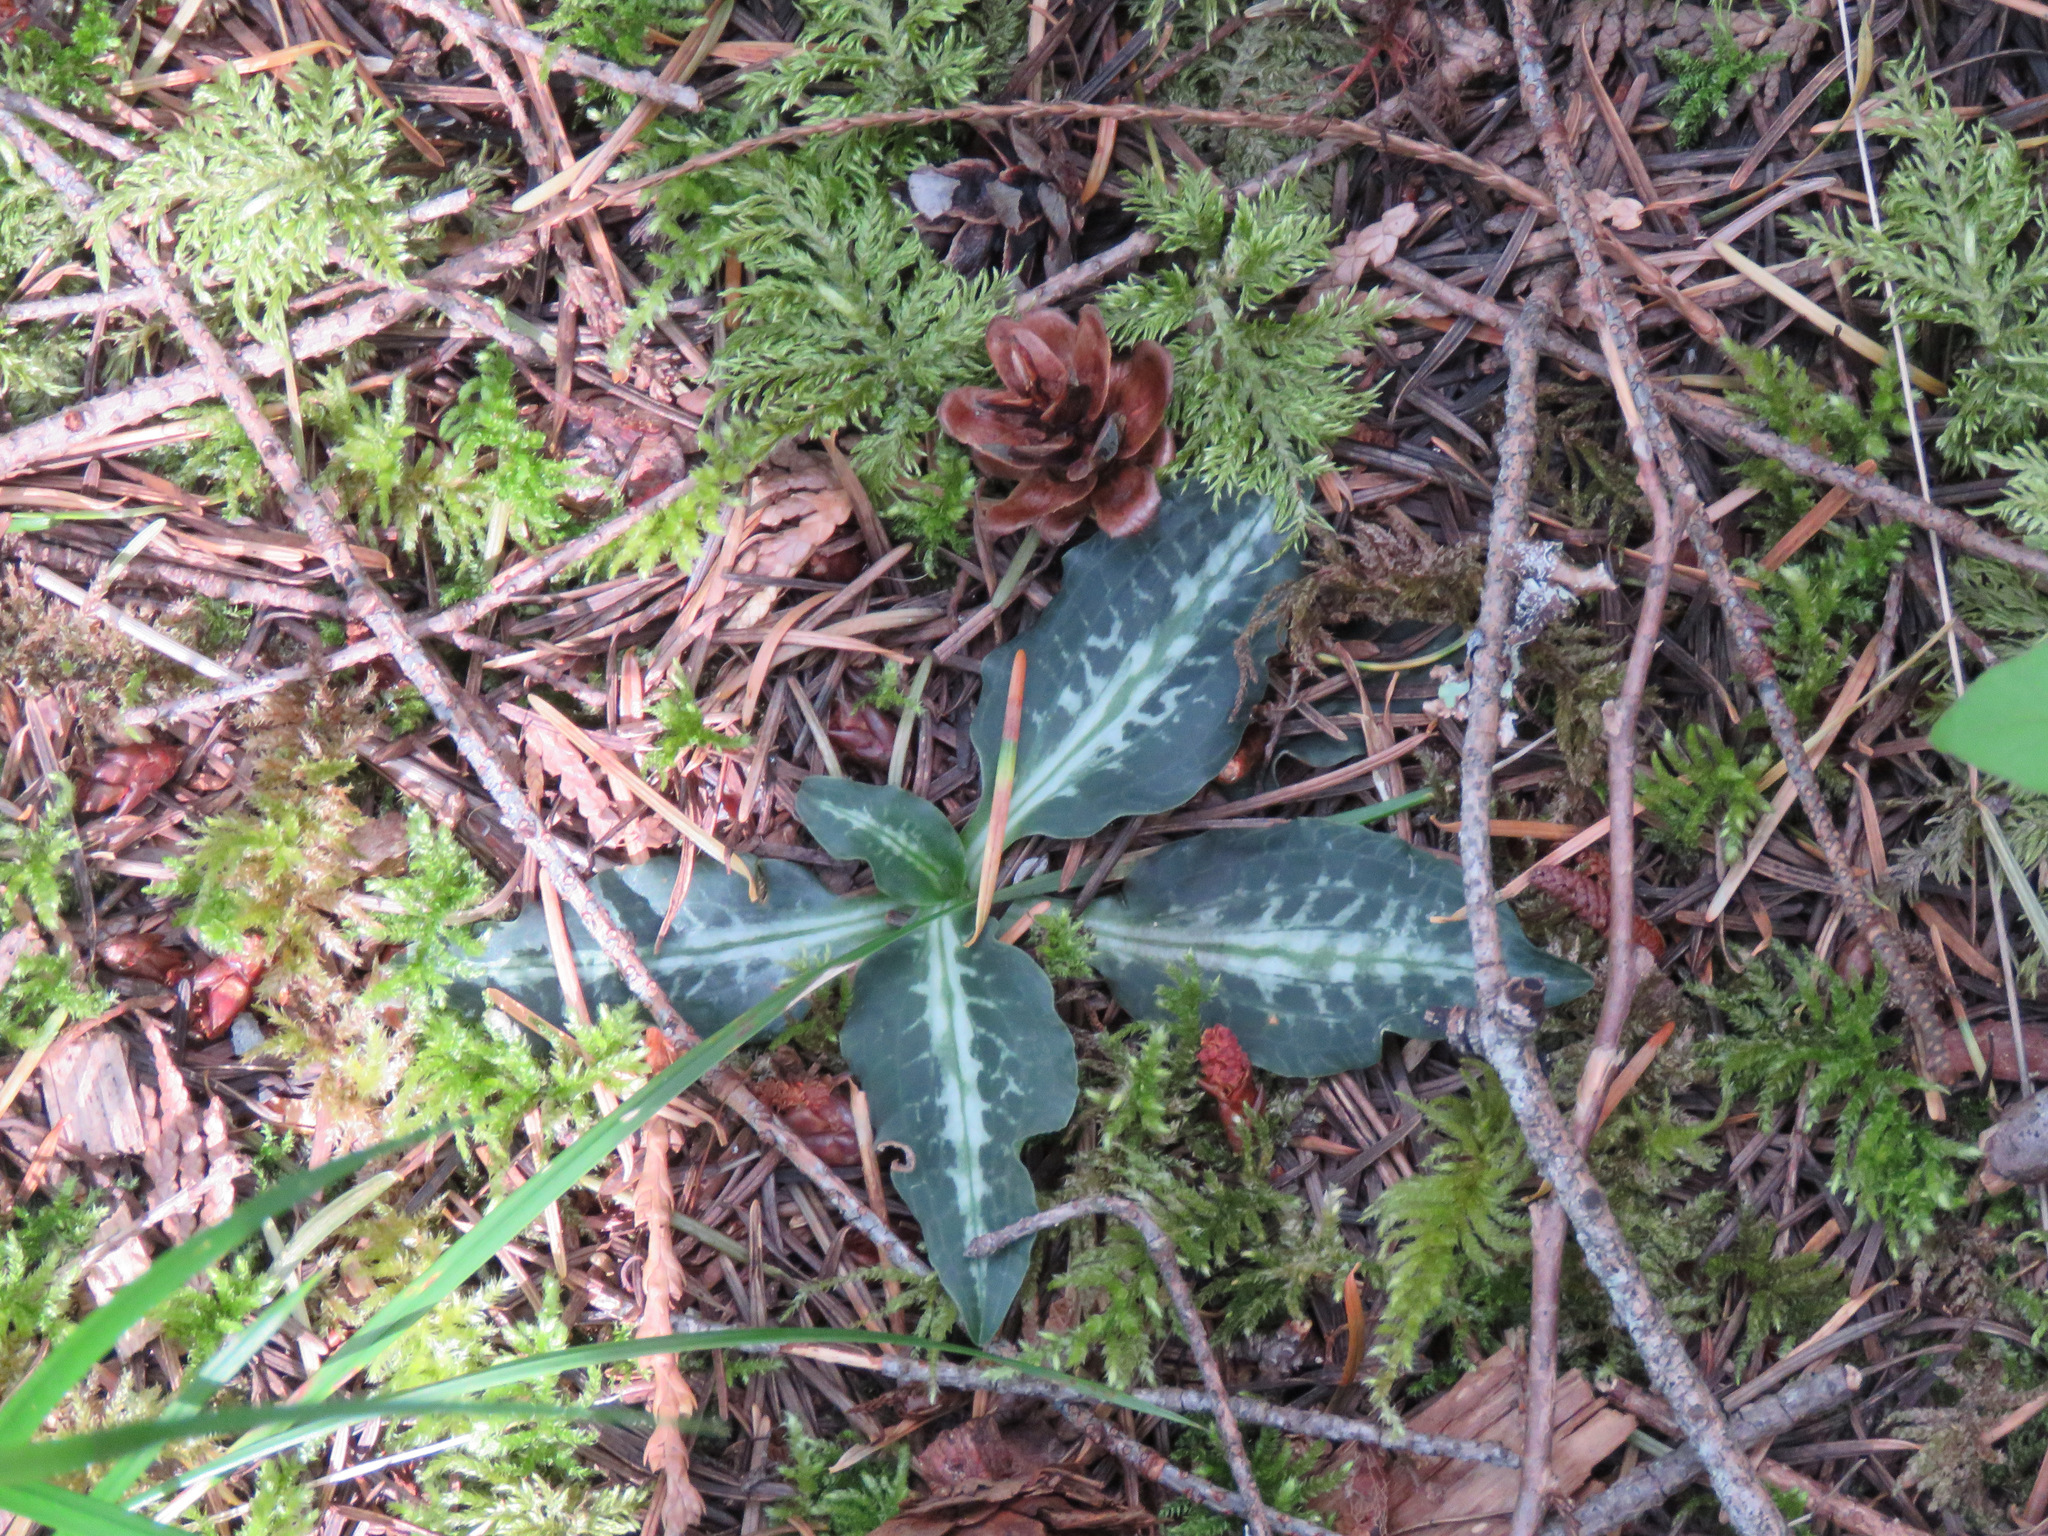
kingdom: Plantae
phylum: Tracheophyta
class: Liliopsida
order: Asparagales
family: Orchidaceae
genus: Goodyera
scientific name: Goodyera oblongifolia
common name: Giant rattlesnake-plantain
